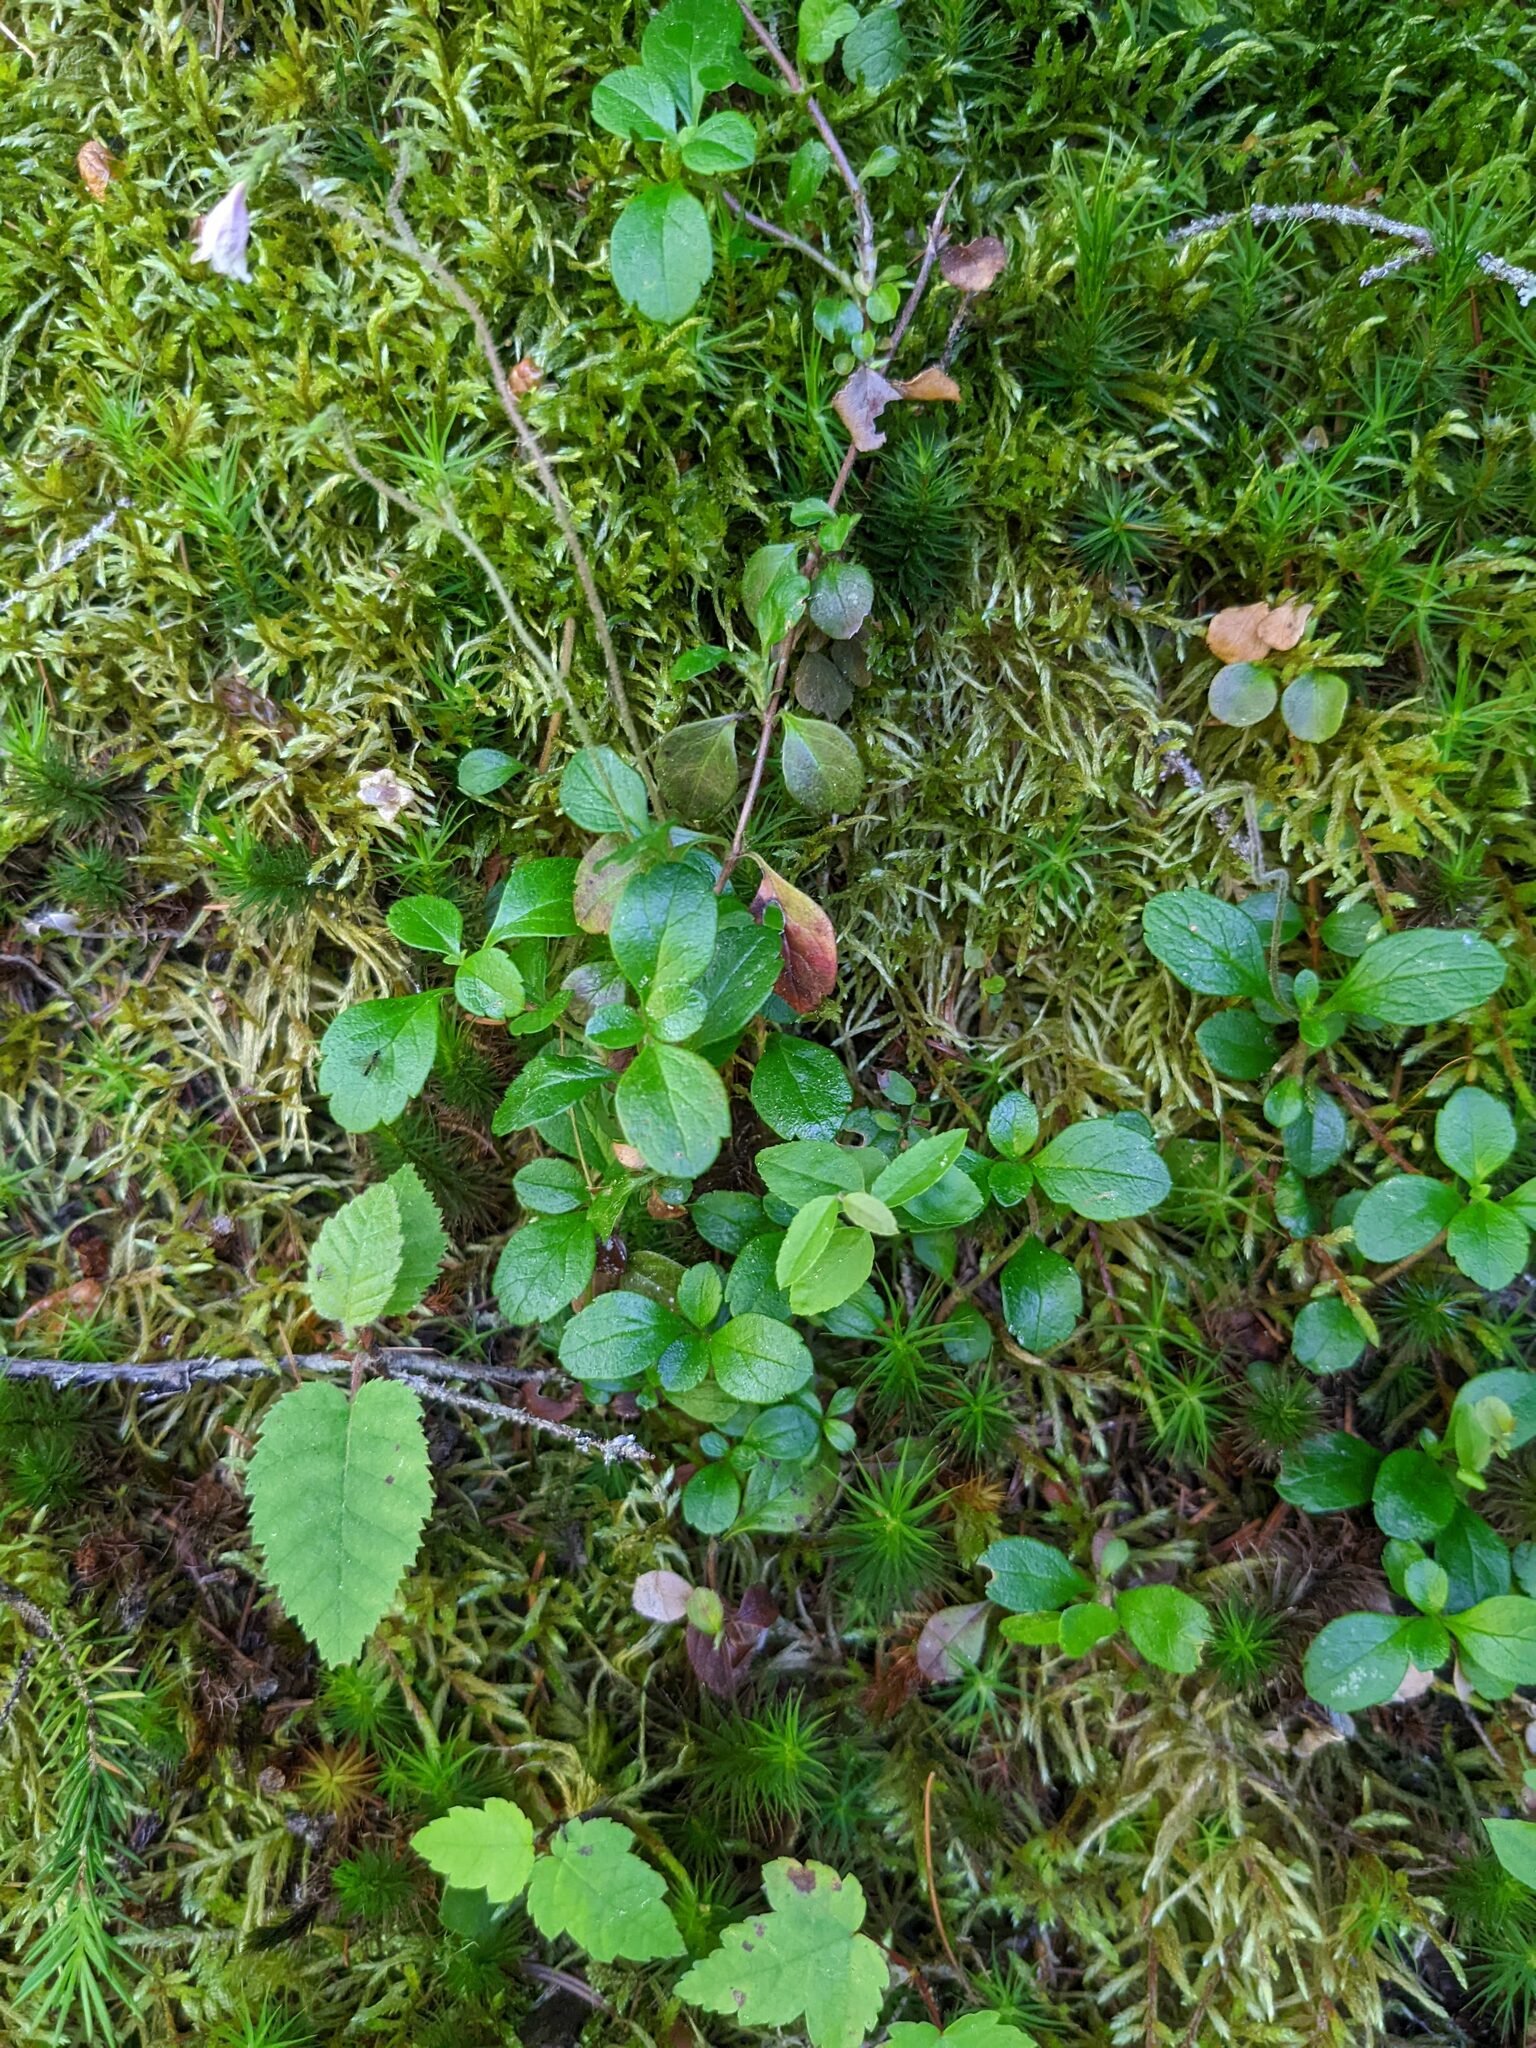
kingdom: Plantae
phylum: Tracheophyta
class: Magnoliopsida
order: Dipsacales
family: Caprifoliaceae
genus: Linnaea
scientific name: Linnaea borealis
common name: Twinflower
